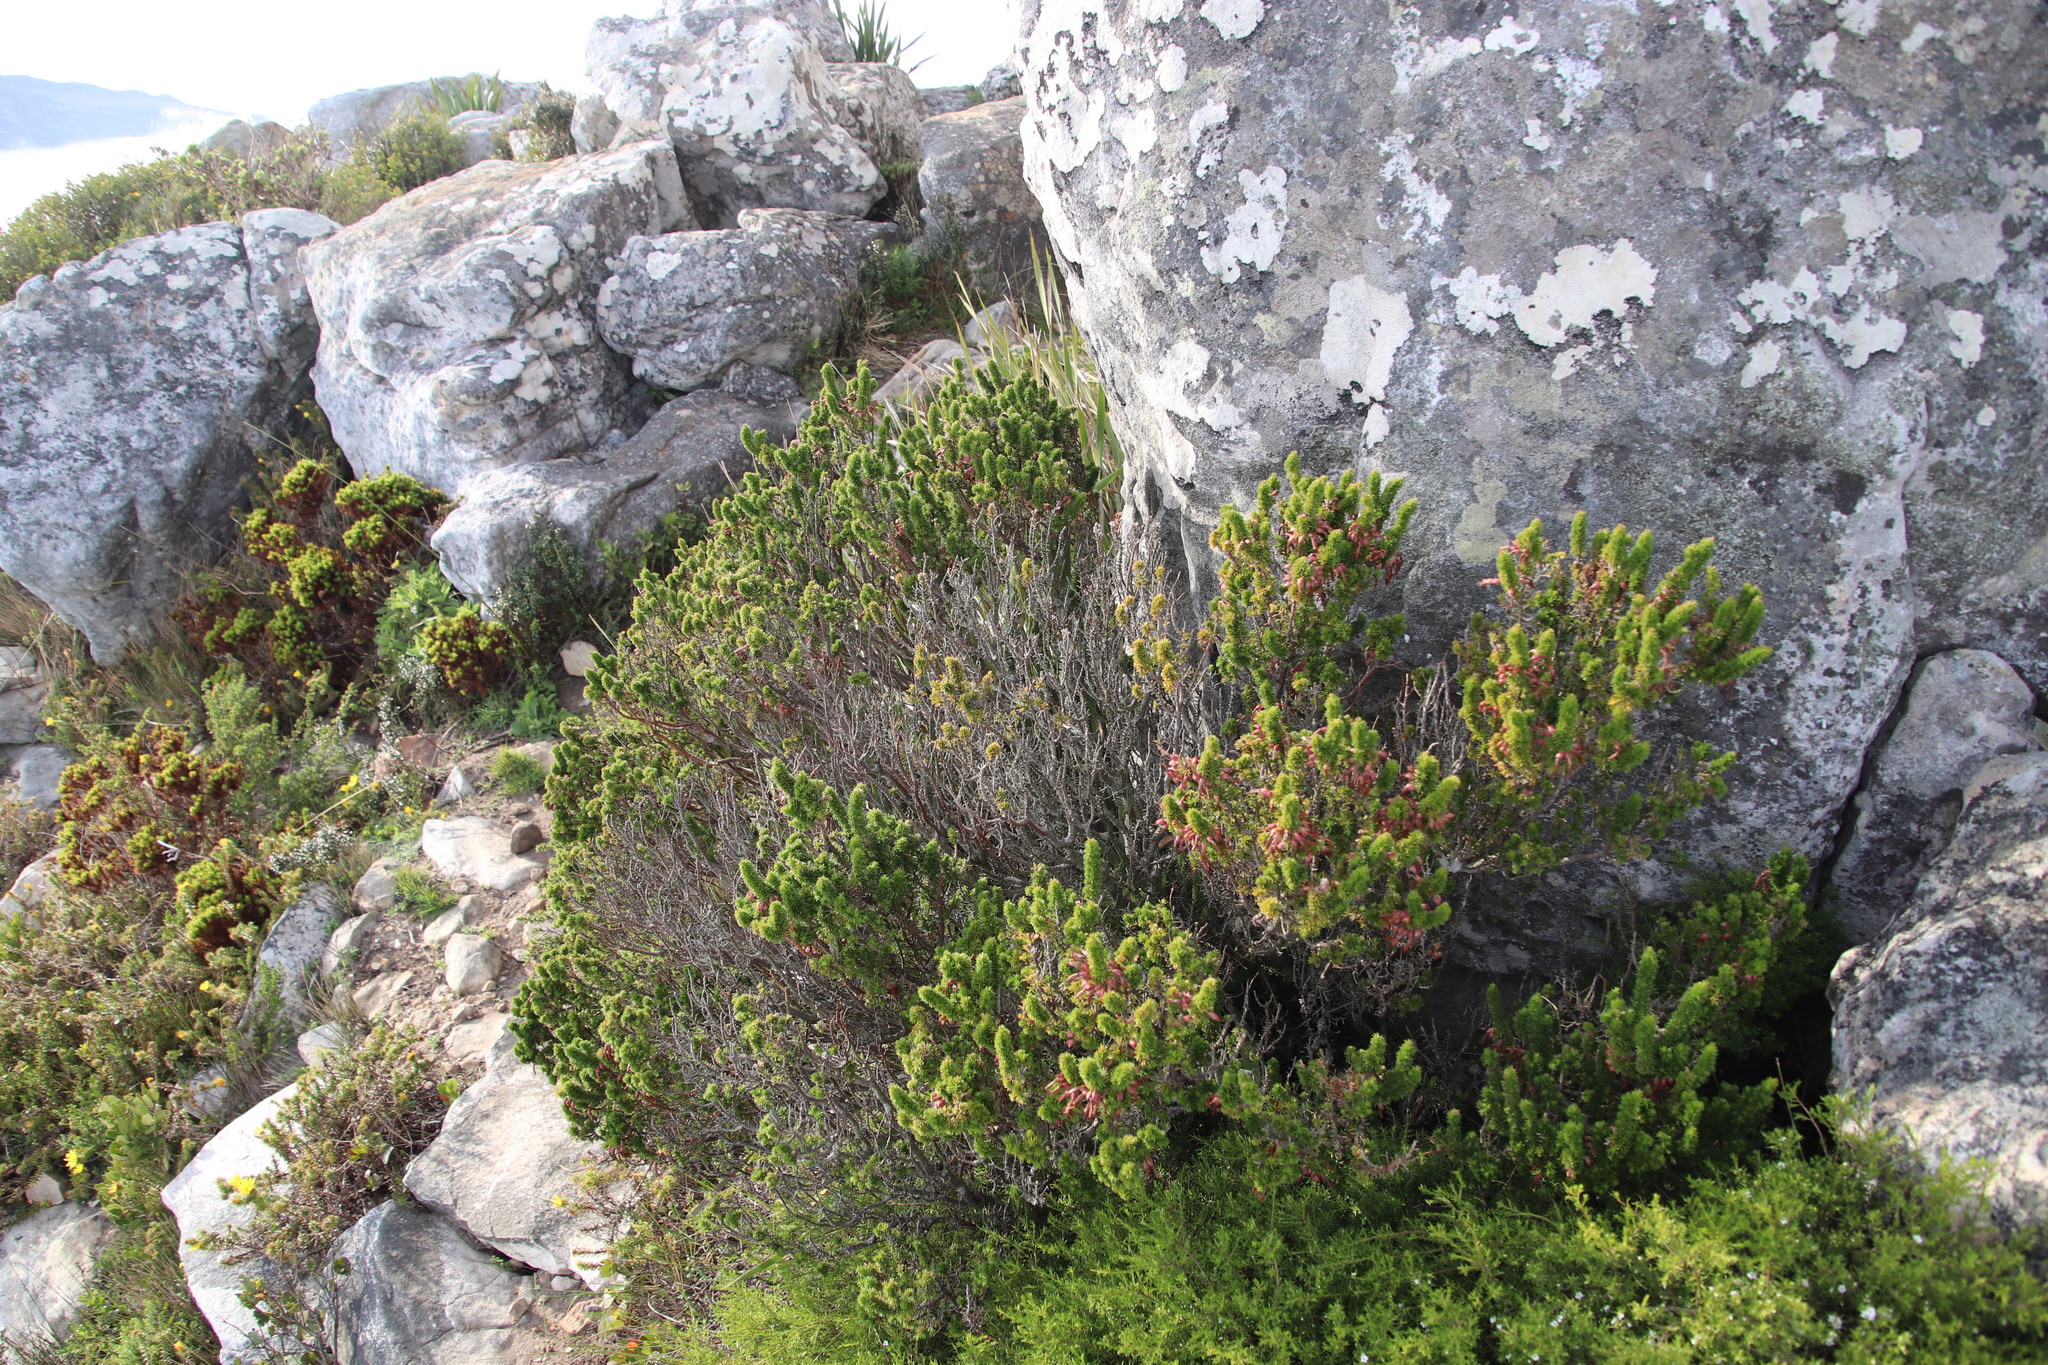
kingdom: Plantae
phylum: Tracheophyta
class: Magnoliopsida
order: Ericales
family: Ericaceae
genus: Erica
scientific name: Erica coccinea
